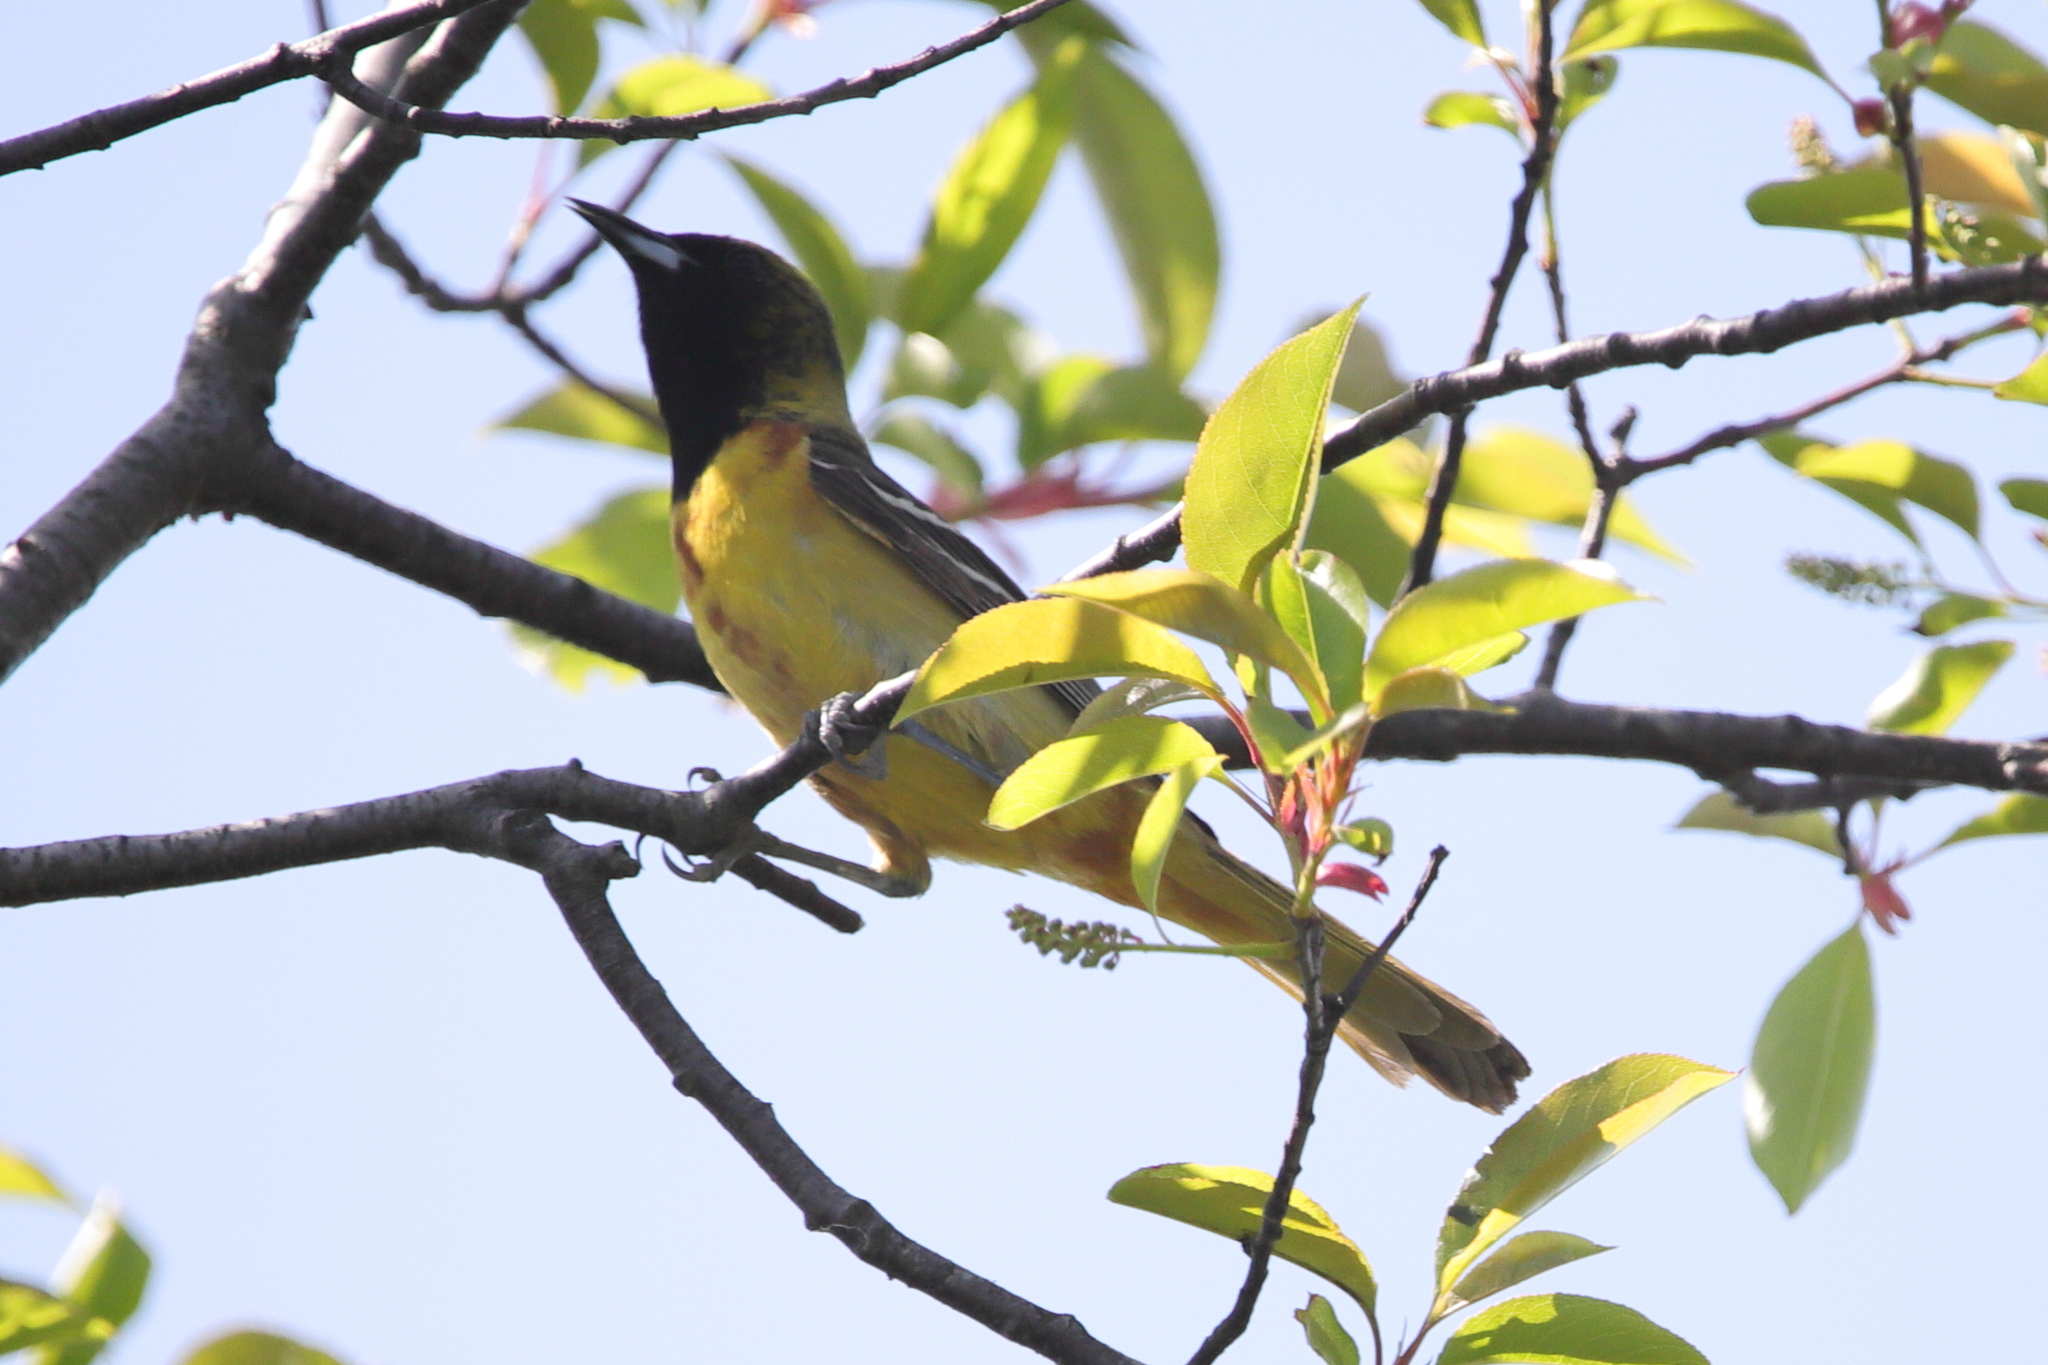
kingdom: Animalia
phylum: Chordata
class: Aves
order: Passeriformes
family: Icteridae
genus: Icterus
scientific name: Icterus spurius
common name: Orchard oriole
